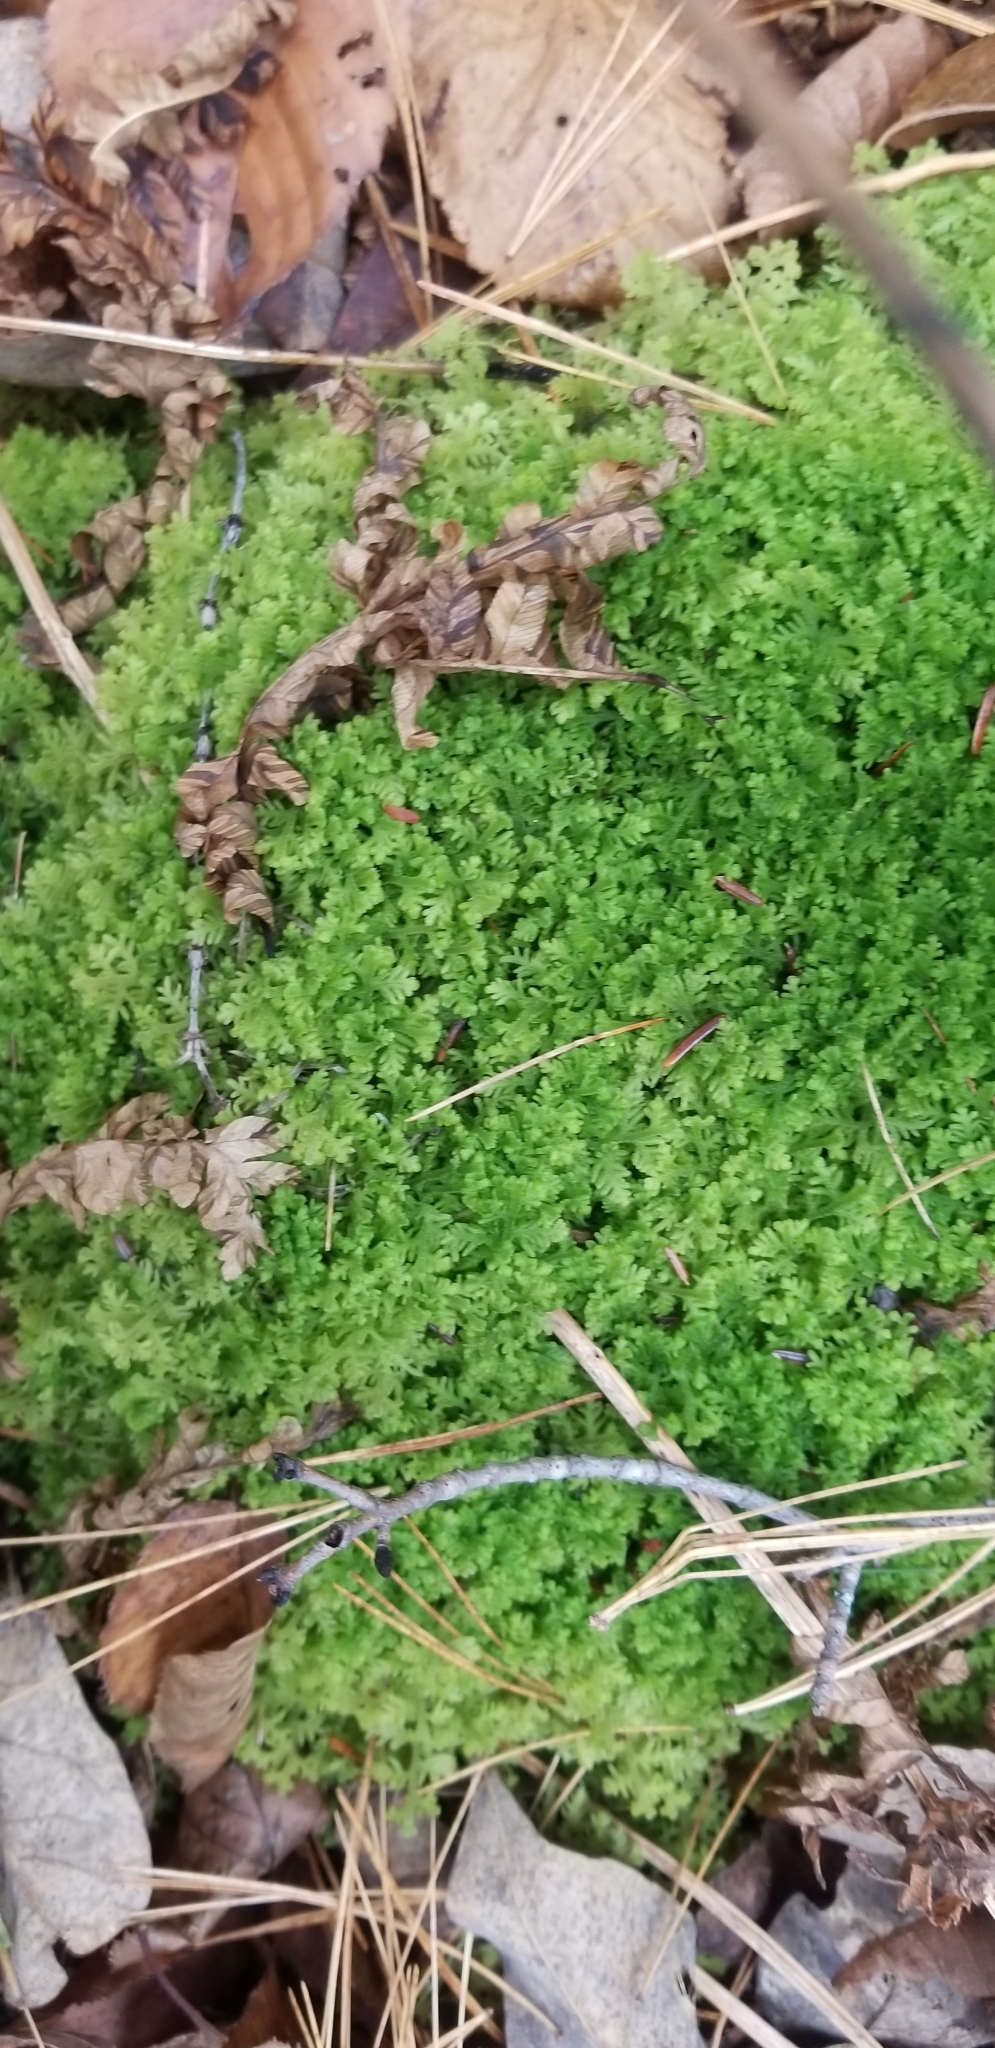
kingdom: Plantae
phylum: Marchantiophyta
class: Jungermanniopsida
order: Jungermanniales
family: Trichocoleaceae
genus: Trichocolea
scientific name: Trichocolea tomentella
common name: Woolly liverwort
